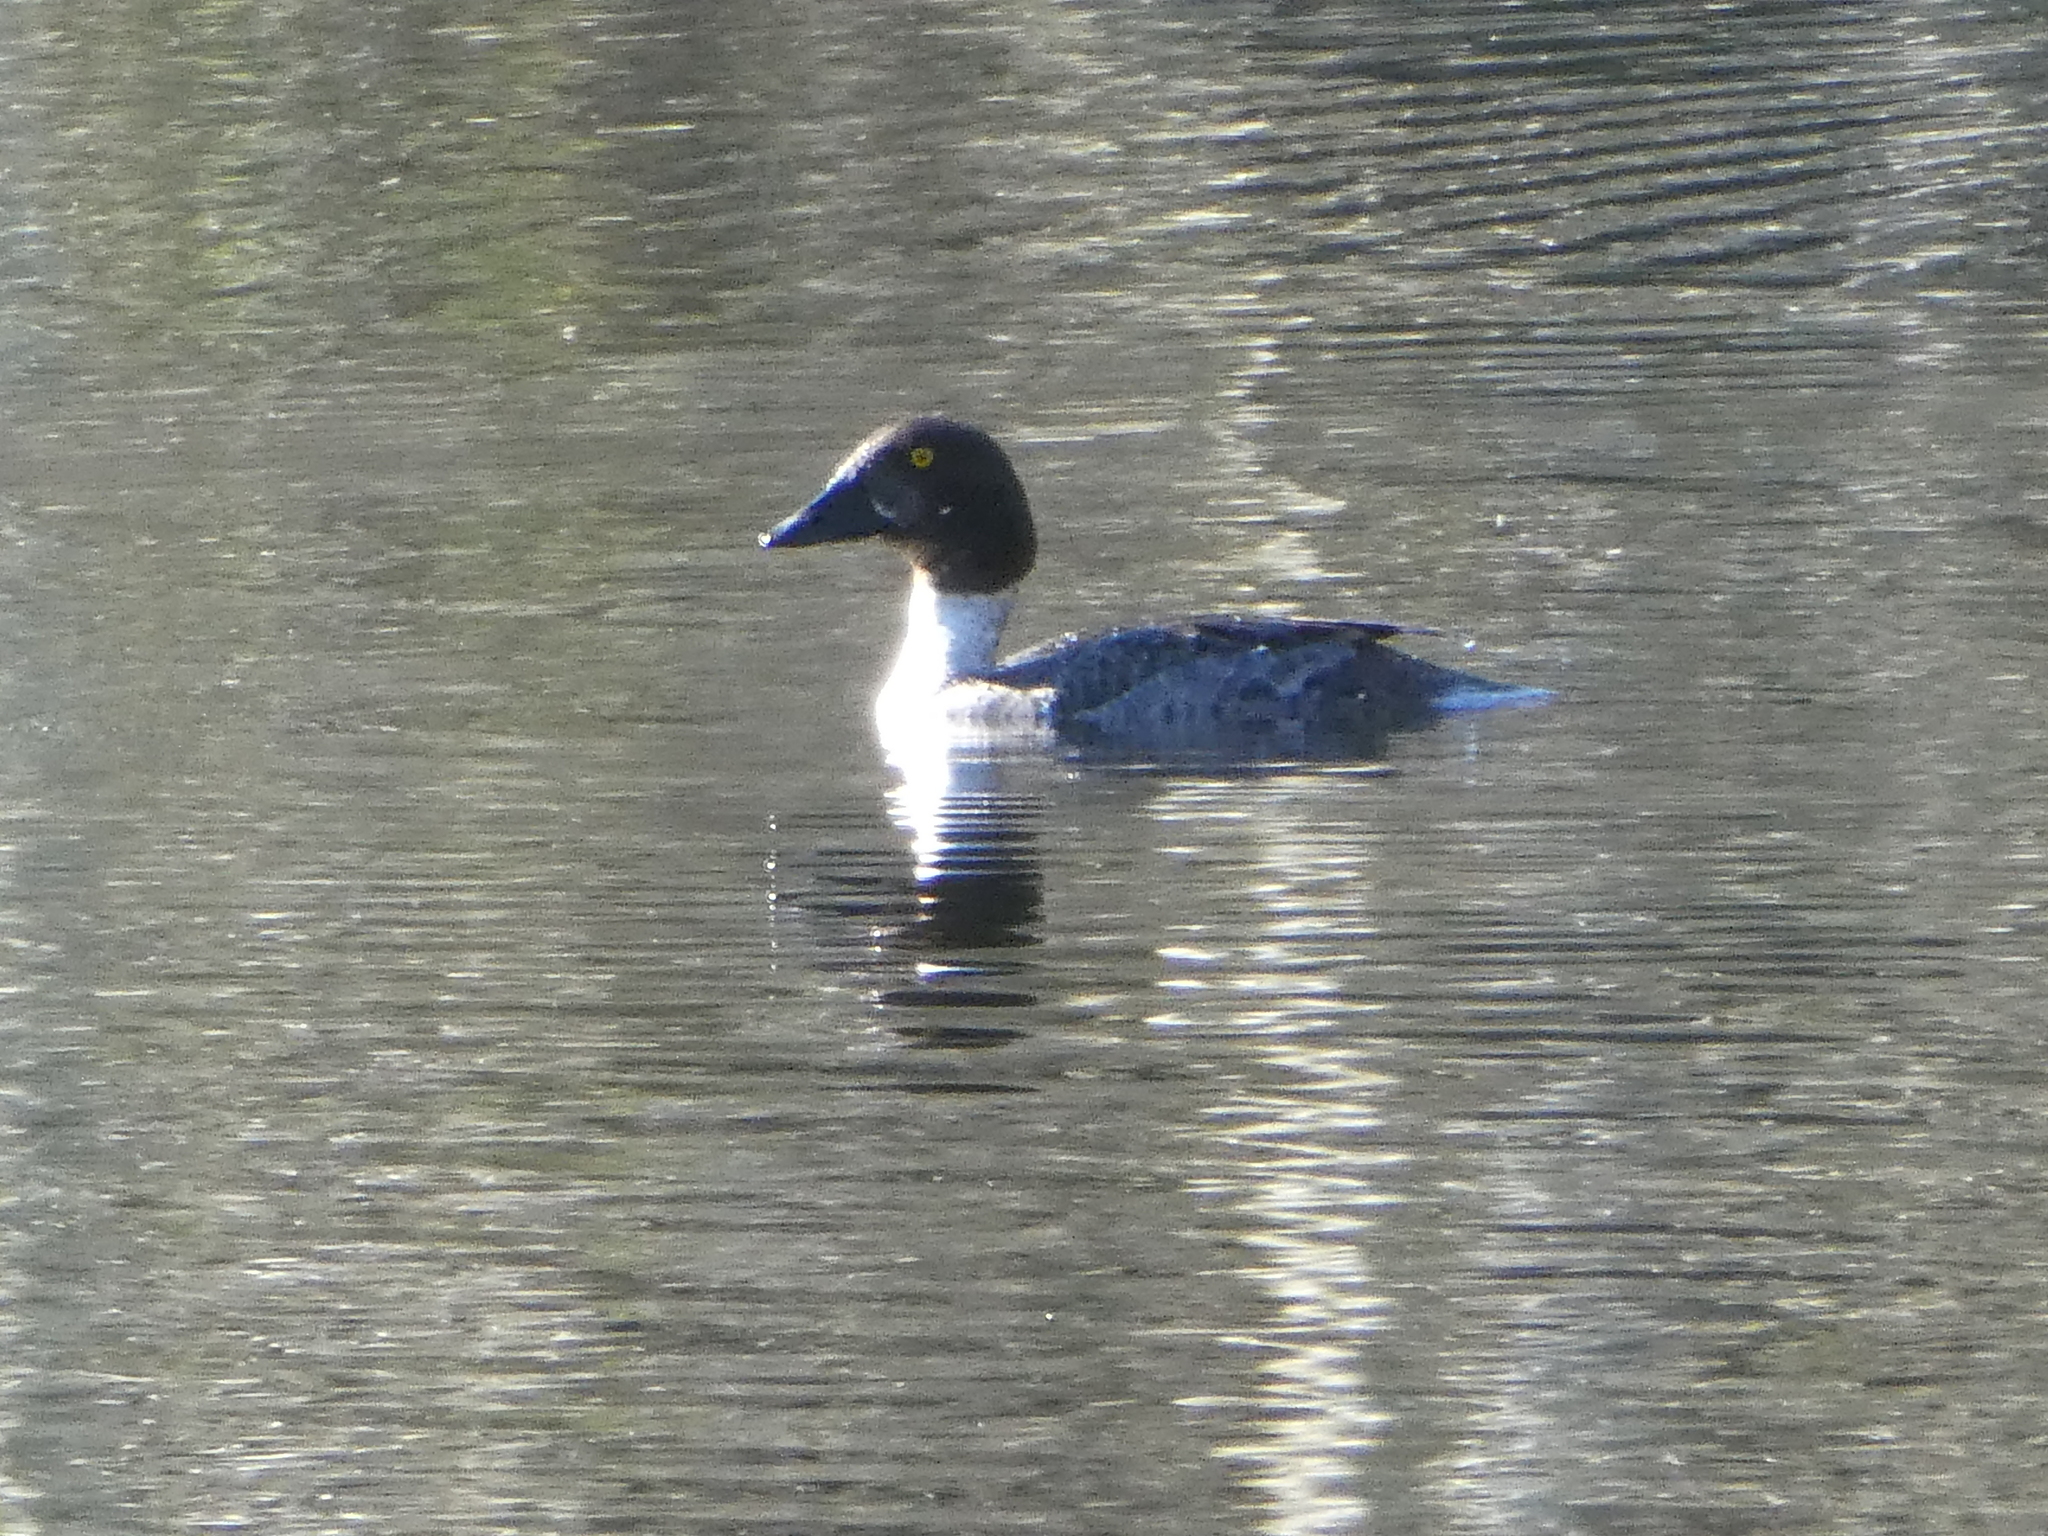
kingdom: Animalia
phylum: Chordata
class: Aves
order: Anseriformes
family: Anatidae
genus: Bucephala
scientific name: Bucephala clangula
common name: Common goldeneye
